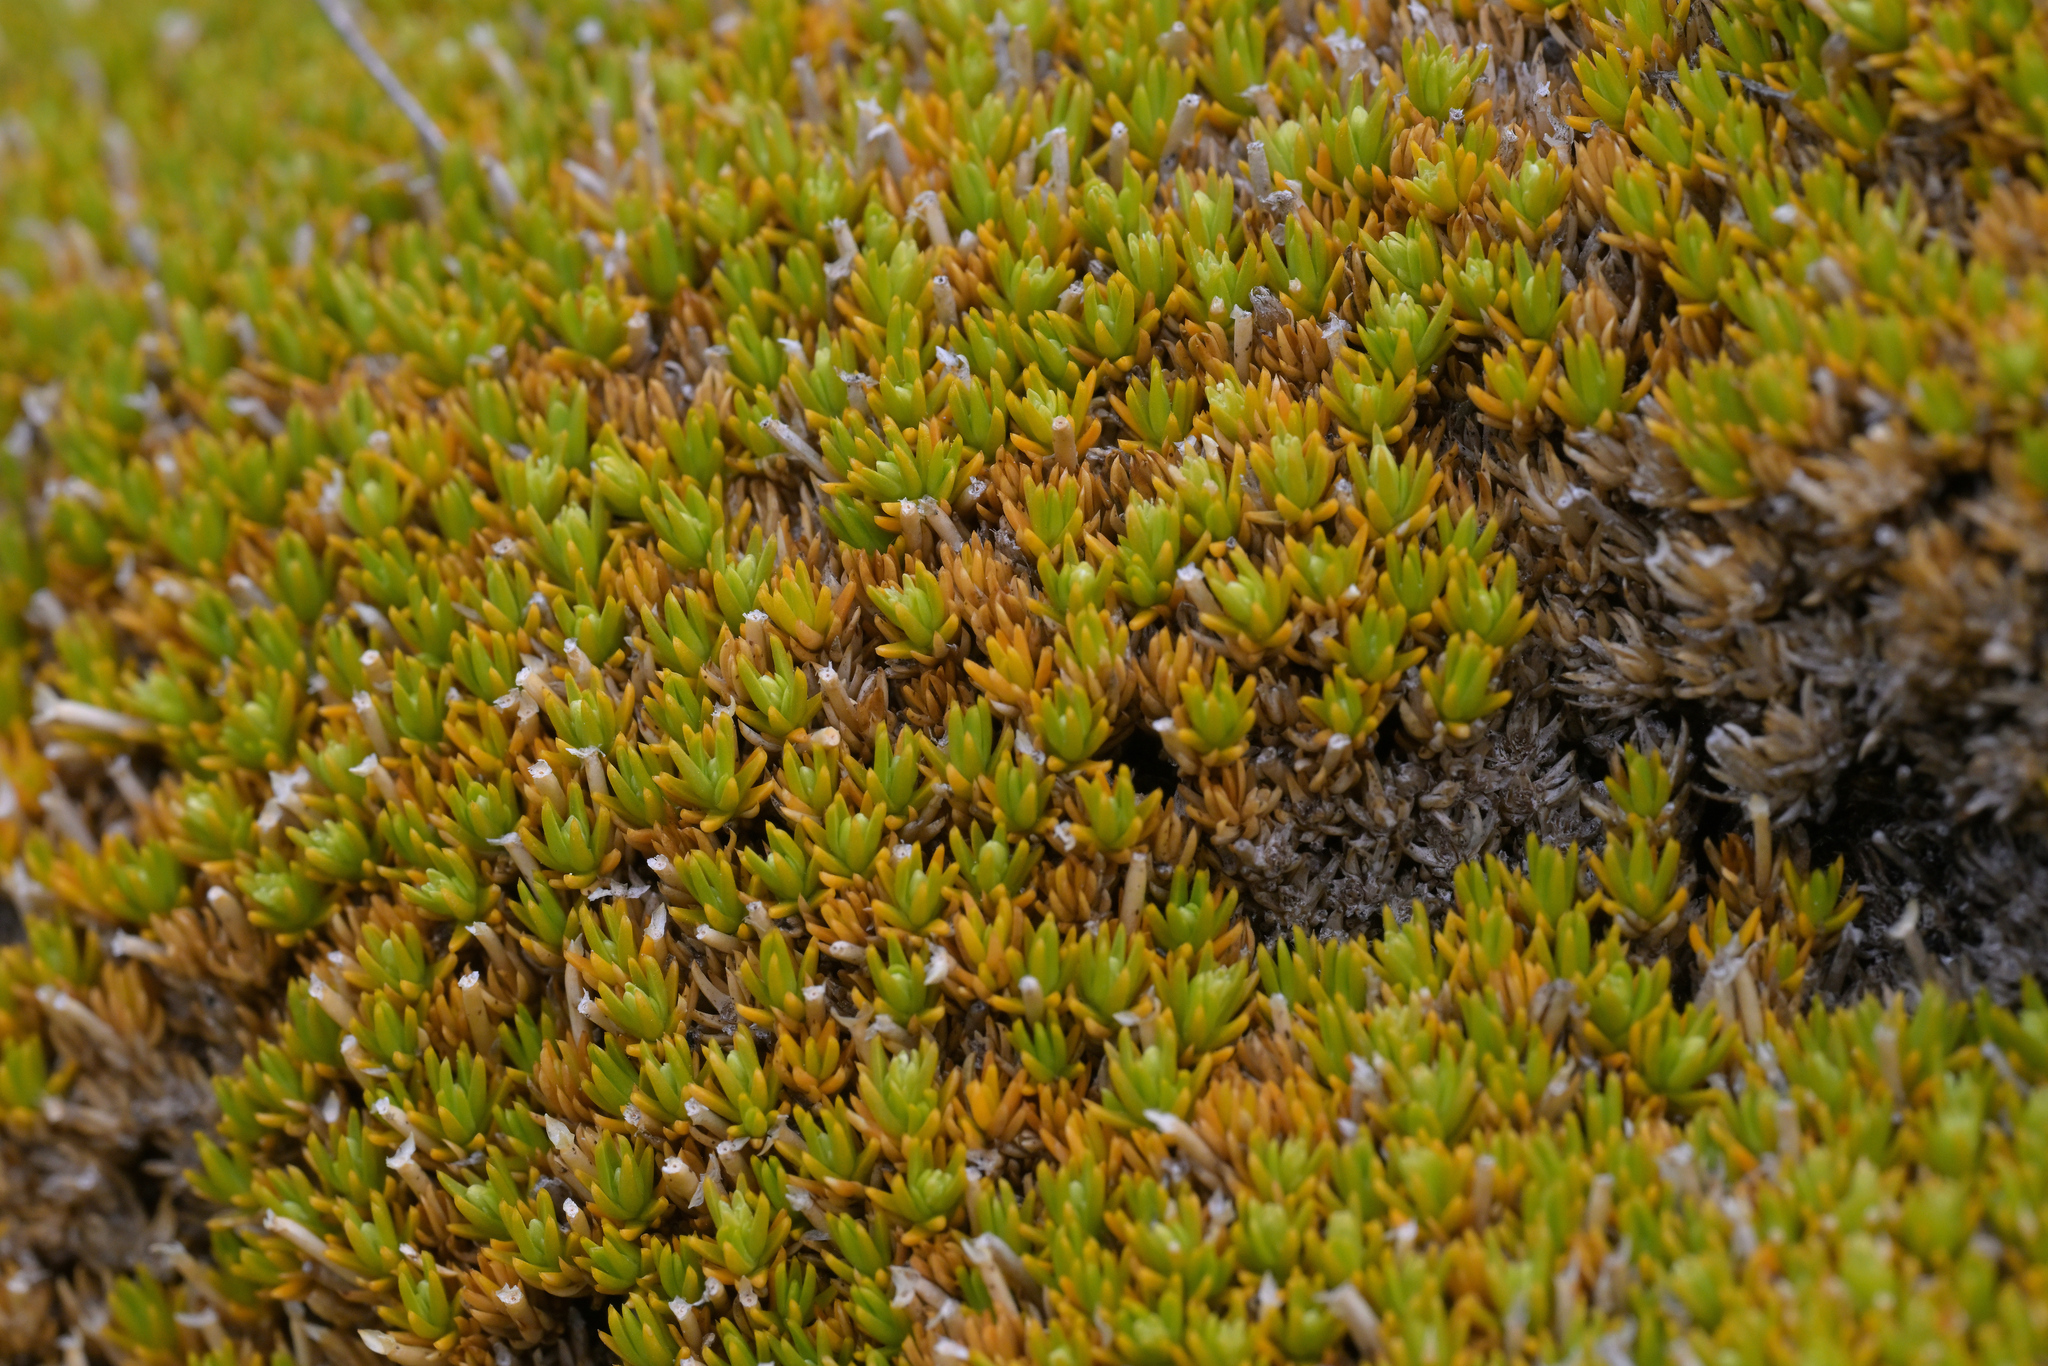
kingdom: Plantae
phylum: Tracheophyta
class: Magnoliopsida
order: Caryophyllales
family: Caryophyllaceae
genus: Scleranthus
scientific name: Scleranthus uniflorus
